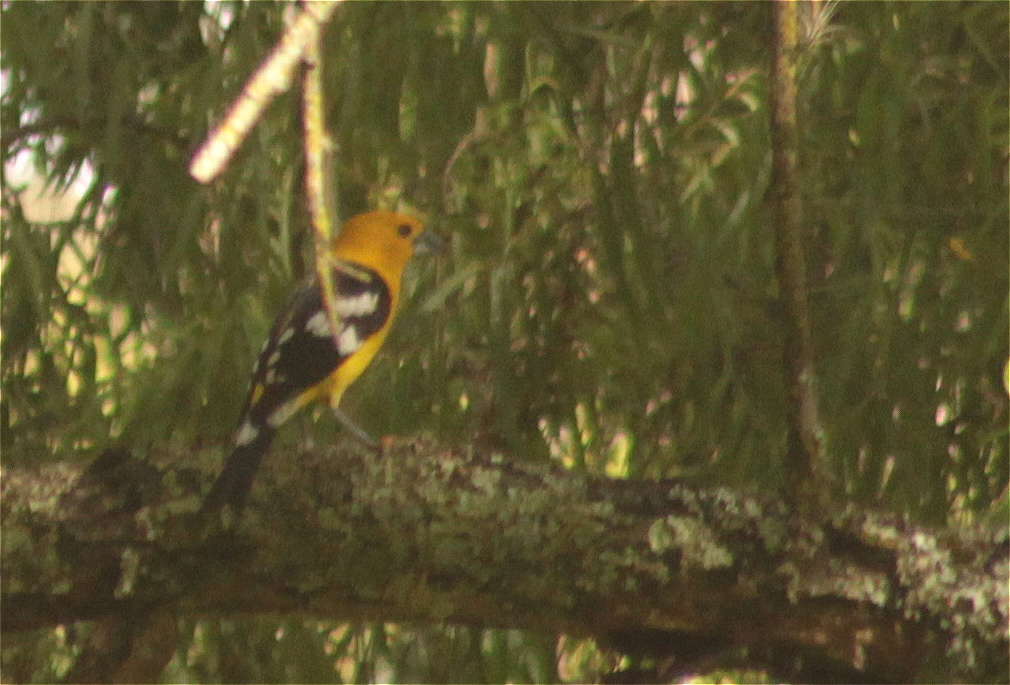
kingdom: Animalia
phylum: Chordata
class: Aves
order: Passeriformes
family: Cardinalidae
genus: Pheucticus
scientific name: Pheucticus chrysogaster
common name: Golden grosbeak
